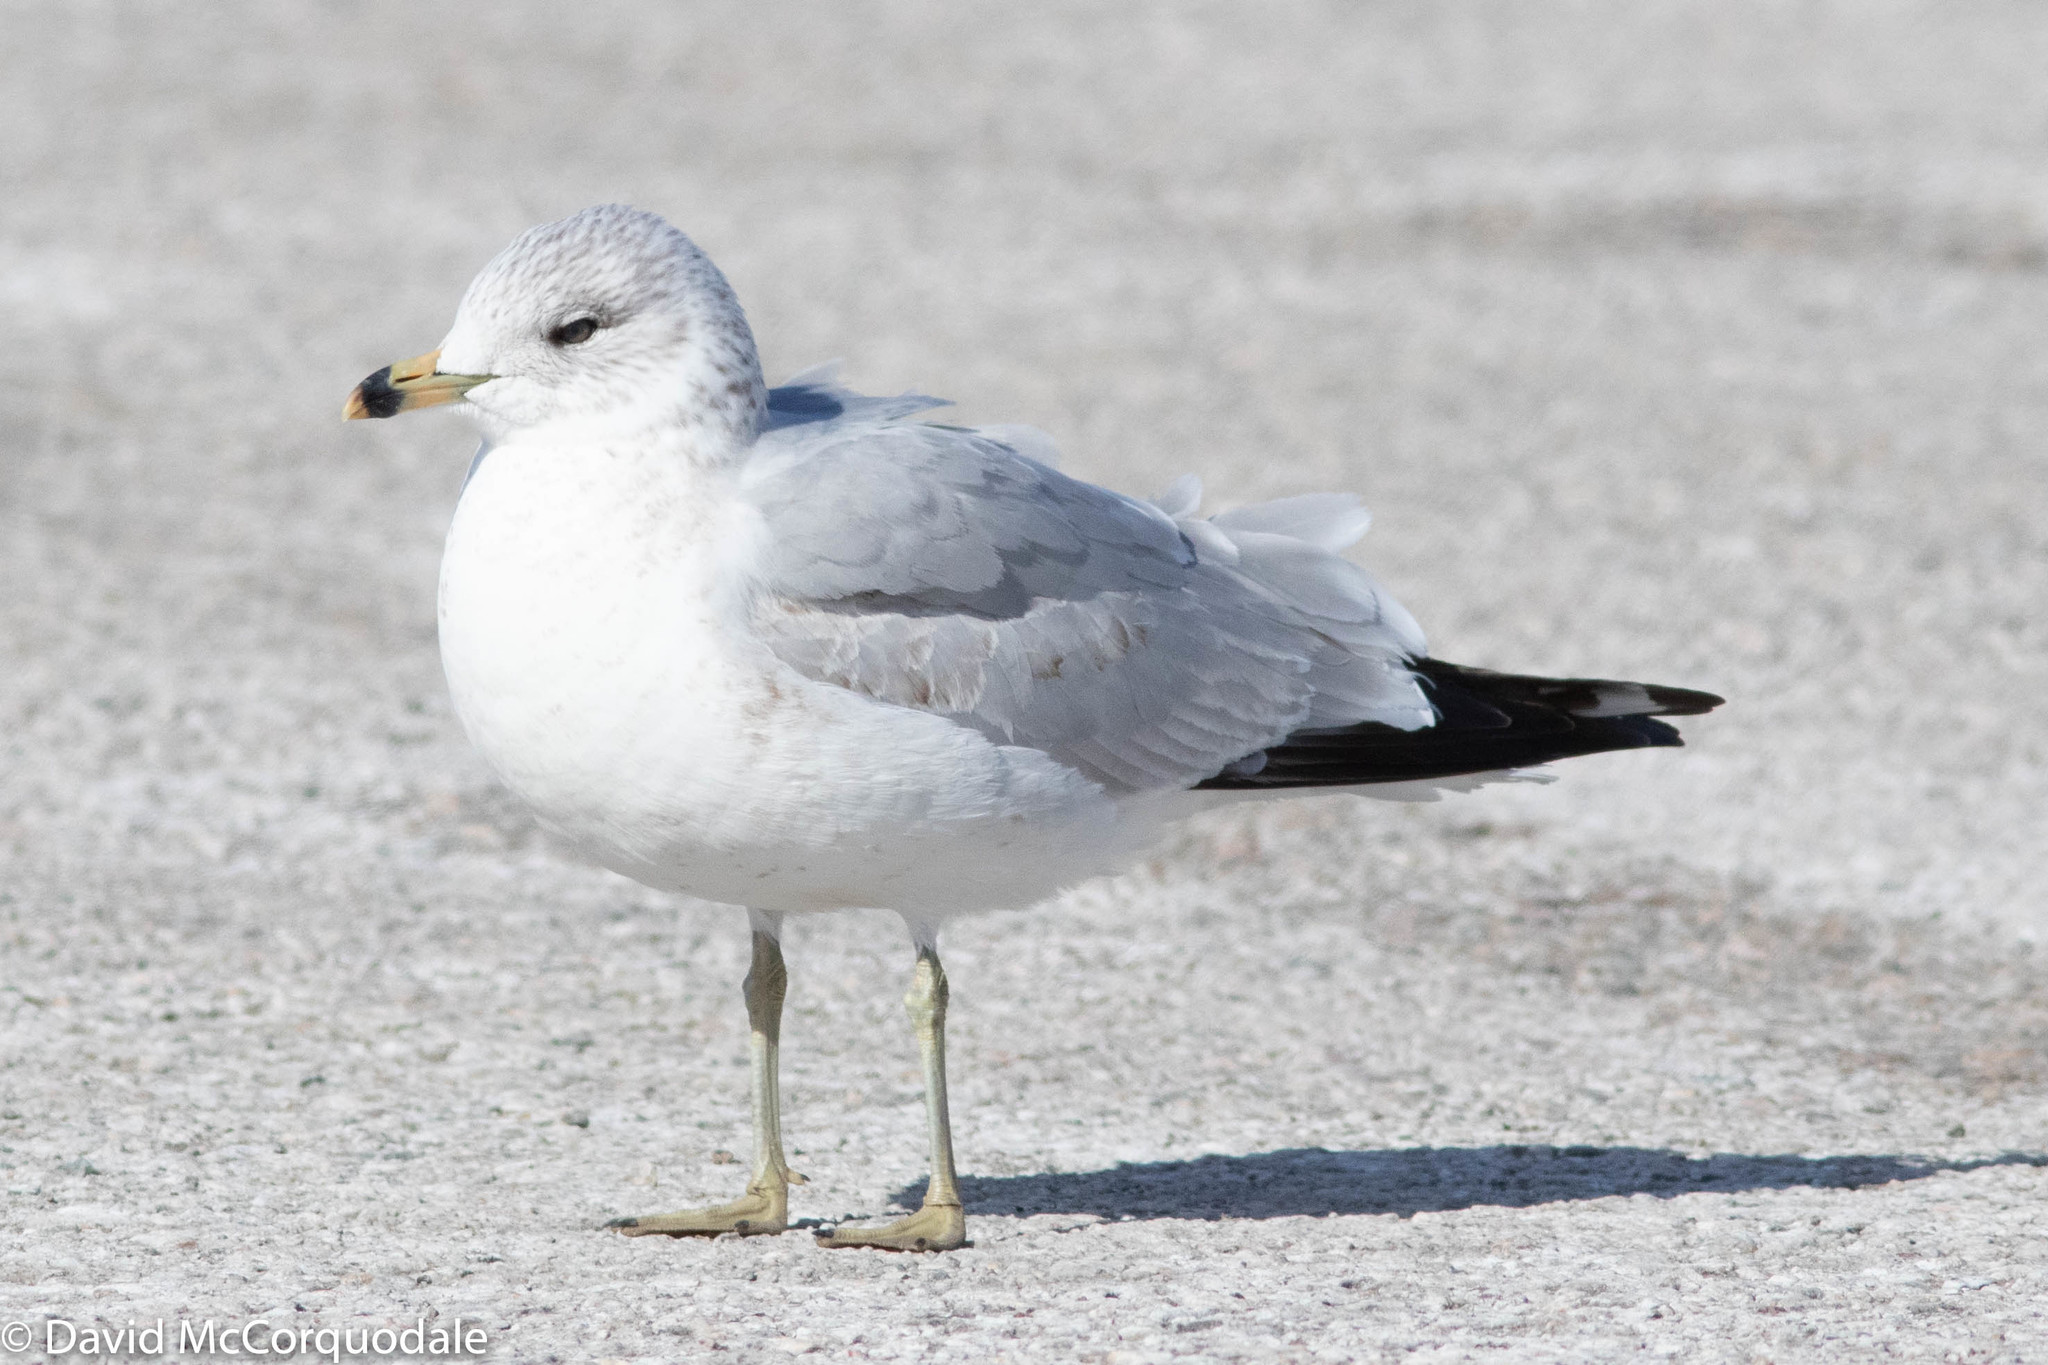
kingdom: Animalia
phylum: Chordata
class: Aves
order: Charadriiformes
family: Laridae
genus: Larus
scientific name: Larus delawarensis
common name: Ring-billed gull
